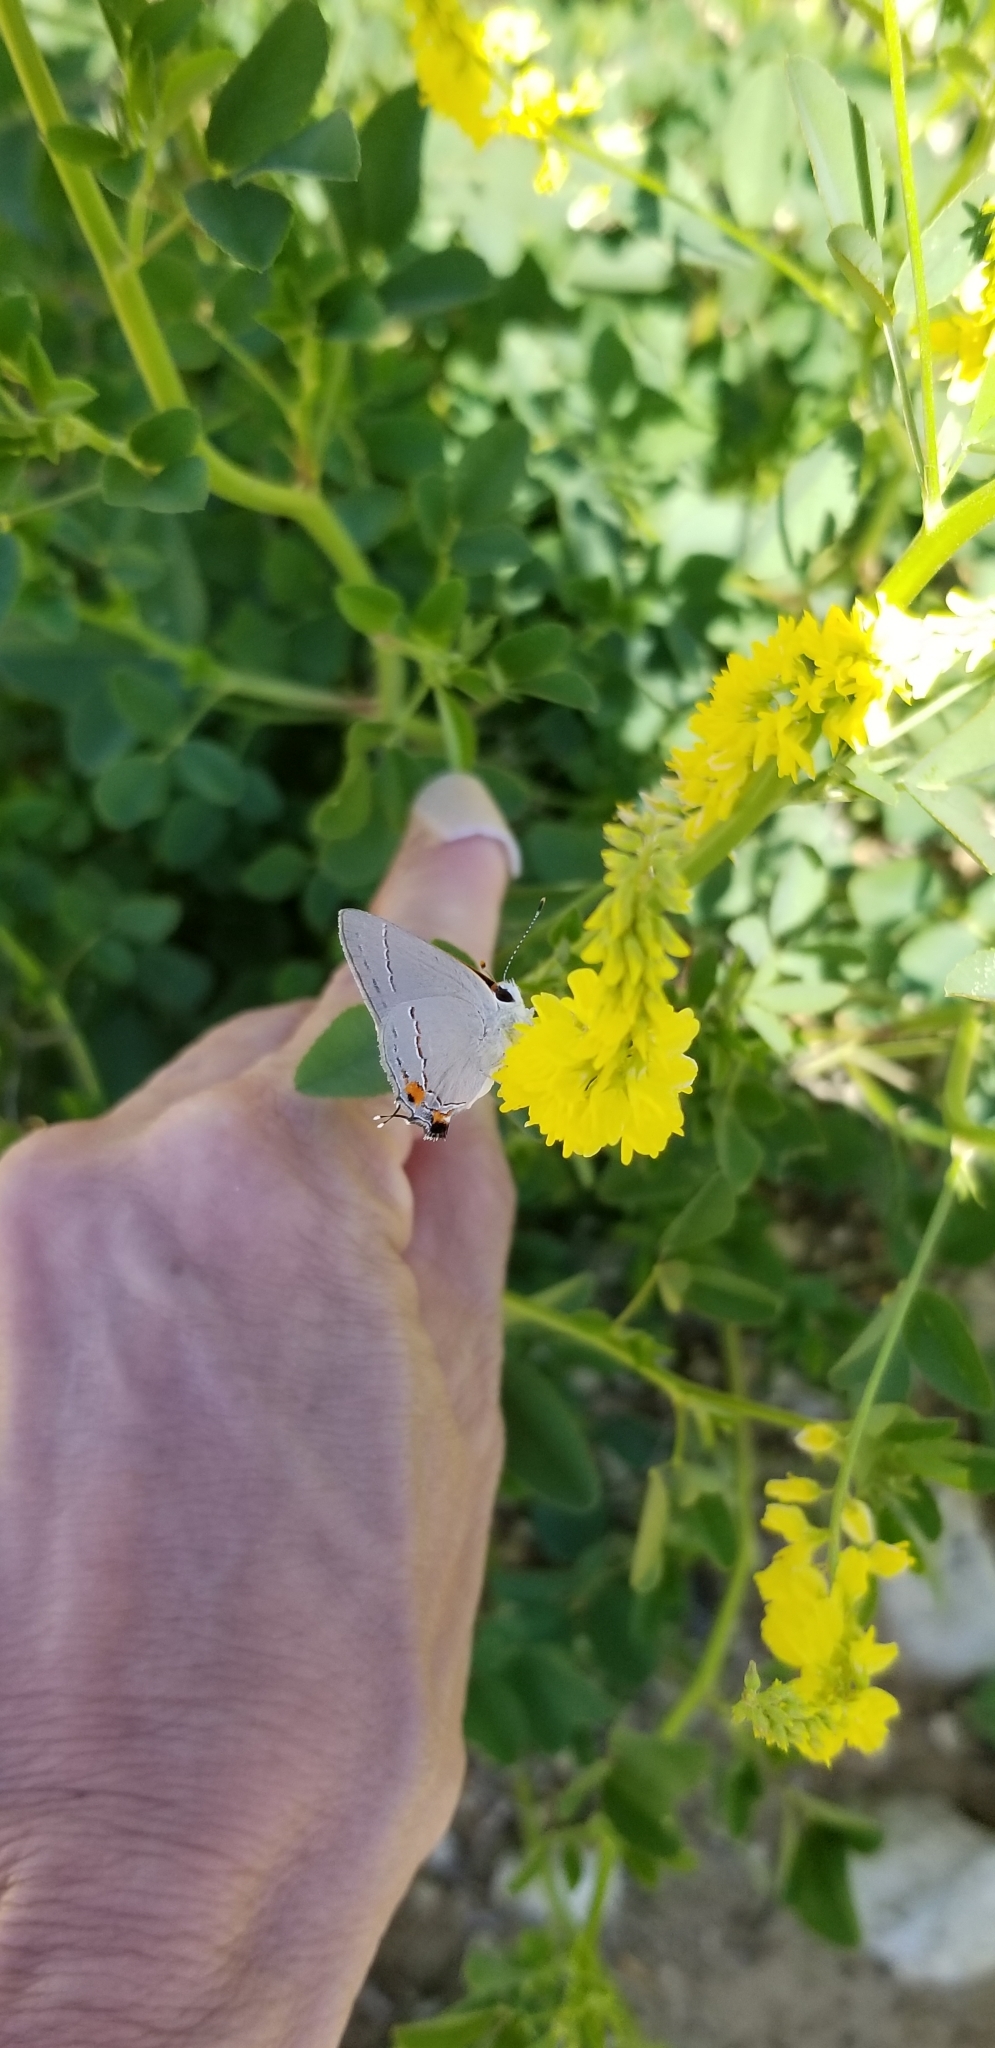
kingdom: Animalia
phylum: Arthropoda
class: Insecta
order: Lepidoptera
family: Lycaenidae
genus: Strymon
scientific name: Strymon melinus
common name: Gray hairstreak
